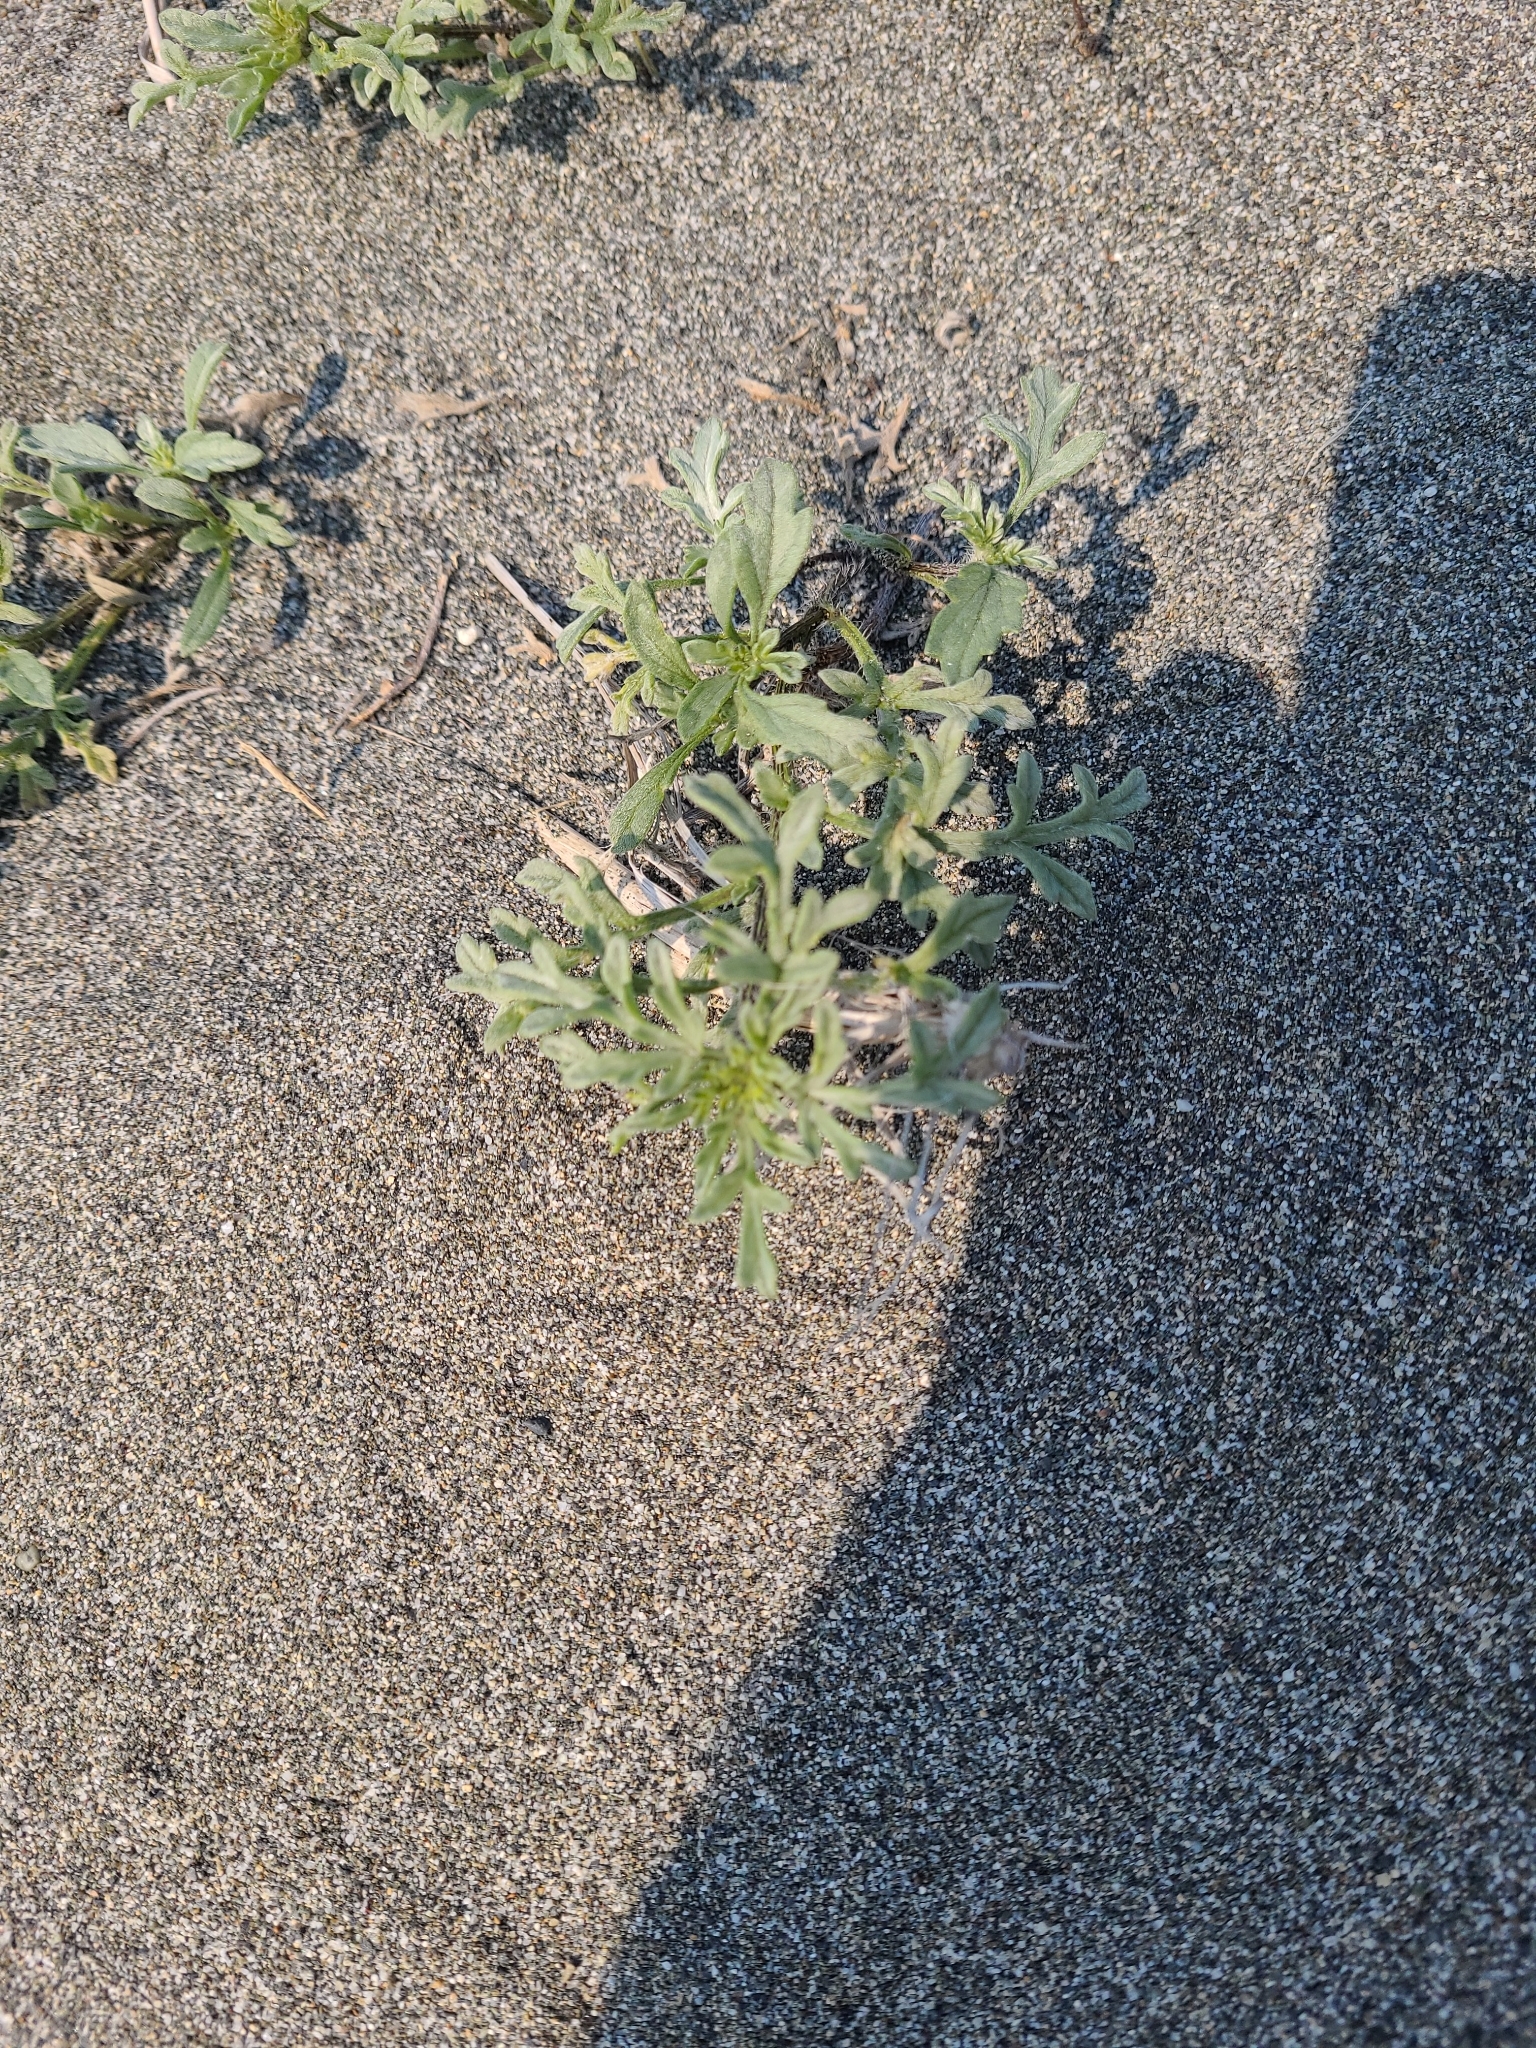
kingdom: Plantae
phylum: Tracheophyta
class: Magnoliopsida
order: Asterales
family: Asteraceae
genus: Ambrosia
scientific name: Ambrosia chamissonis
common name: Beachbur
